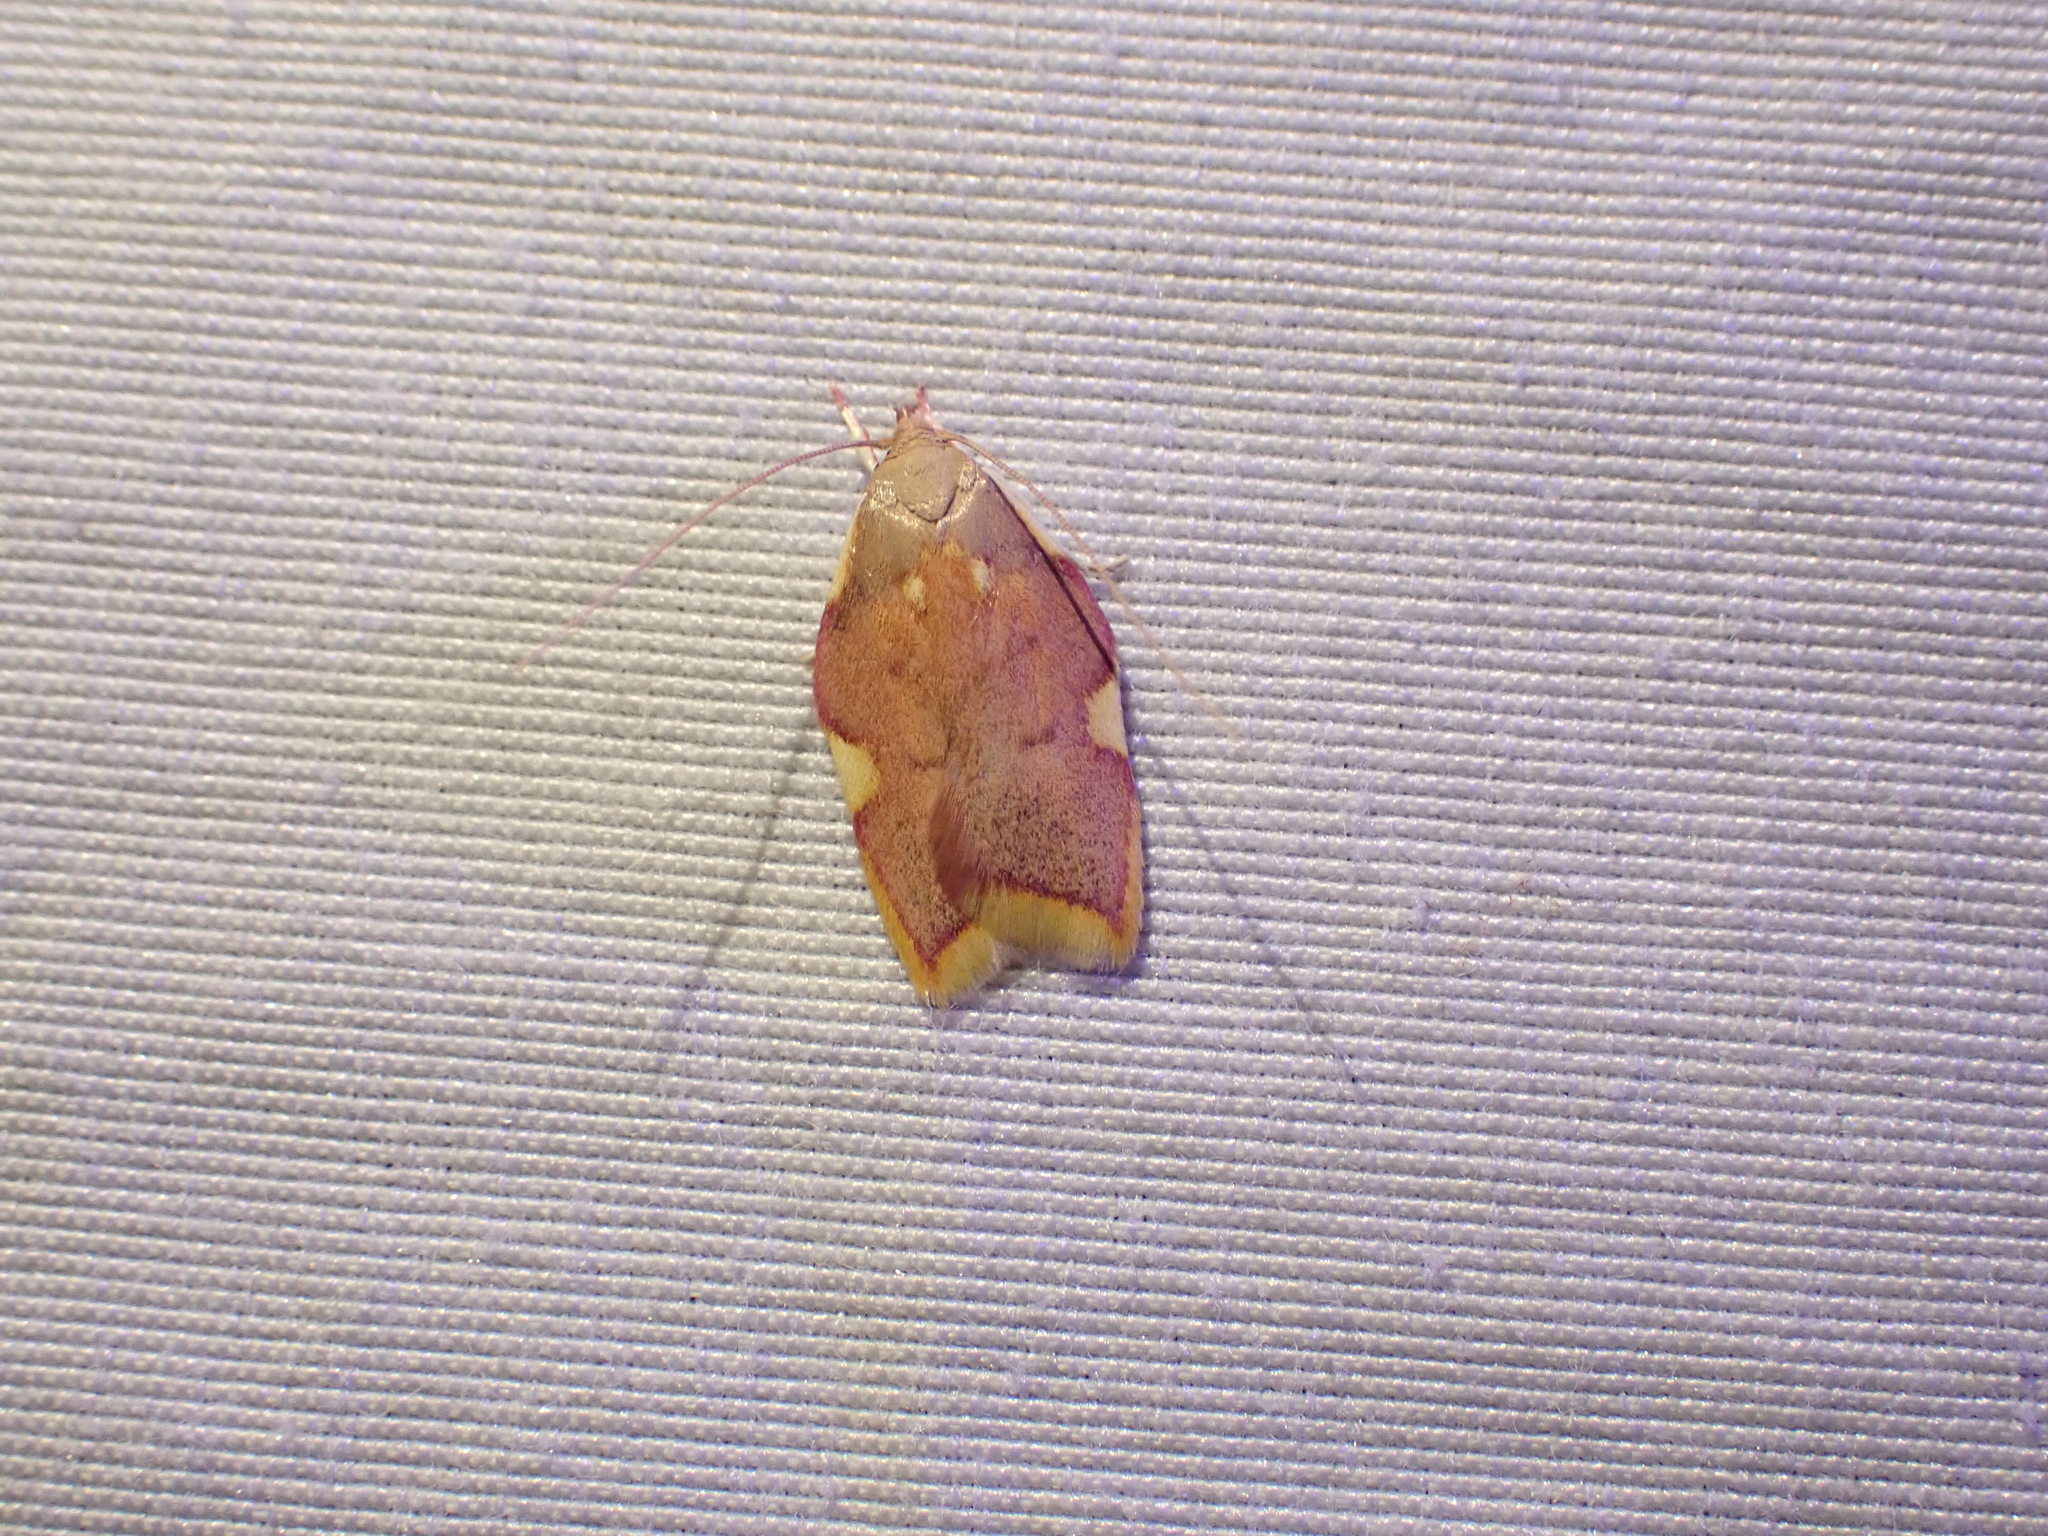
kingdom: Animalia
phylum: Arthropoda
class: Insecta
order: Lepidoptera
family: Peleopodidae
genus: Carcina
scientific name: Carcina quercana
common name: Moth
